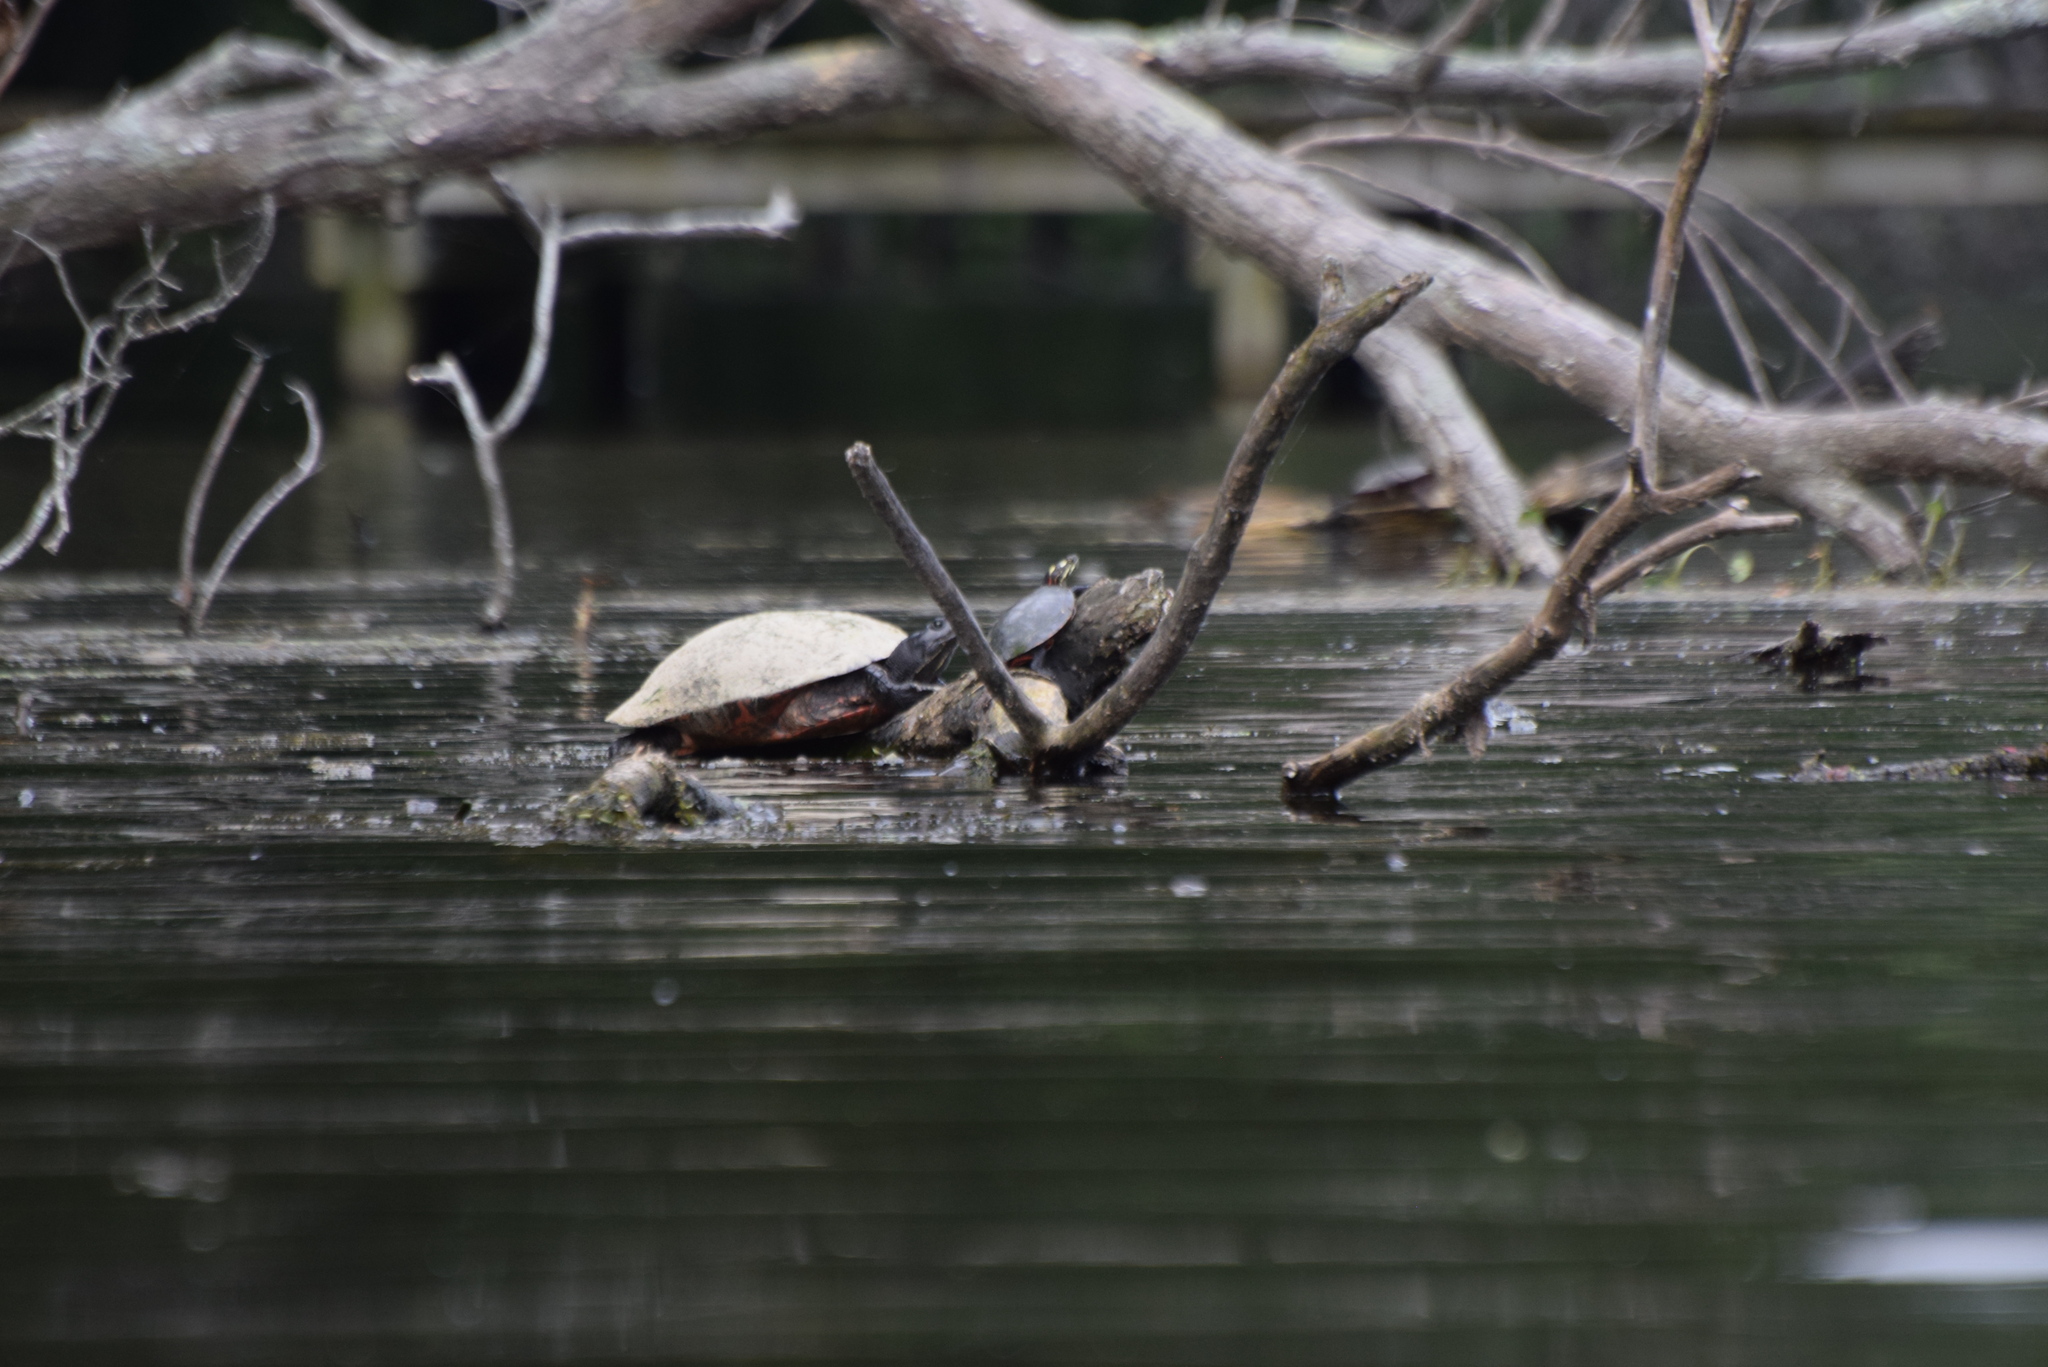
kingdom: Animalia
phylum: Chordata
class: Testudines
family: Emydidae
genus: Chrysemys
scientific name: Chrysemys picta
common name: Painted turtle
